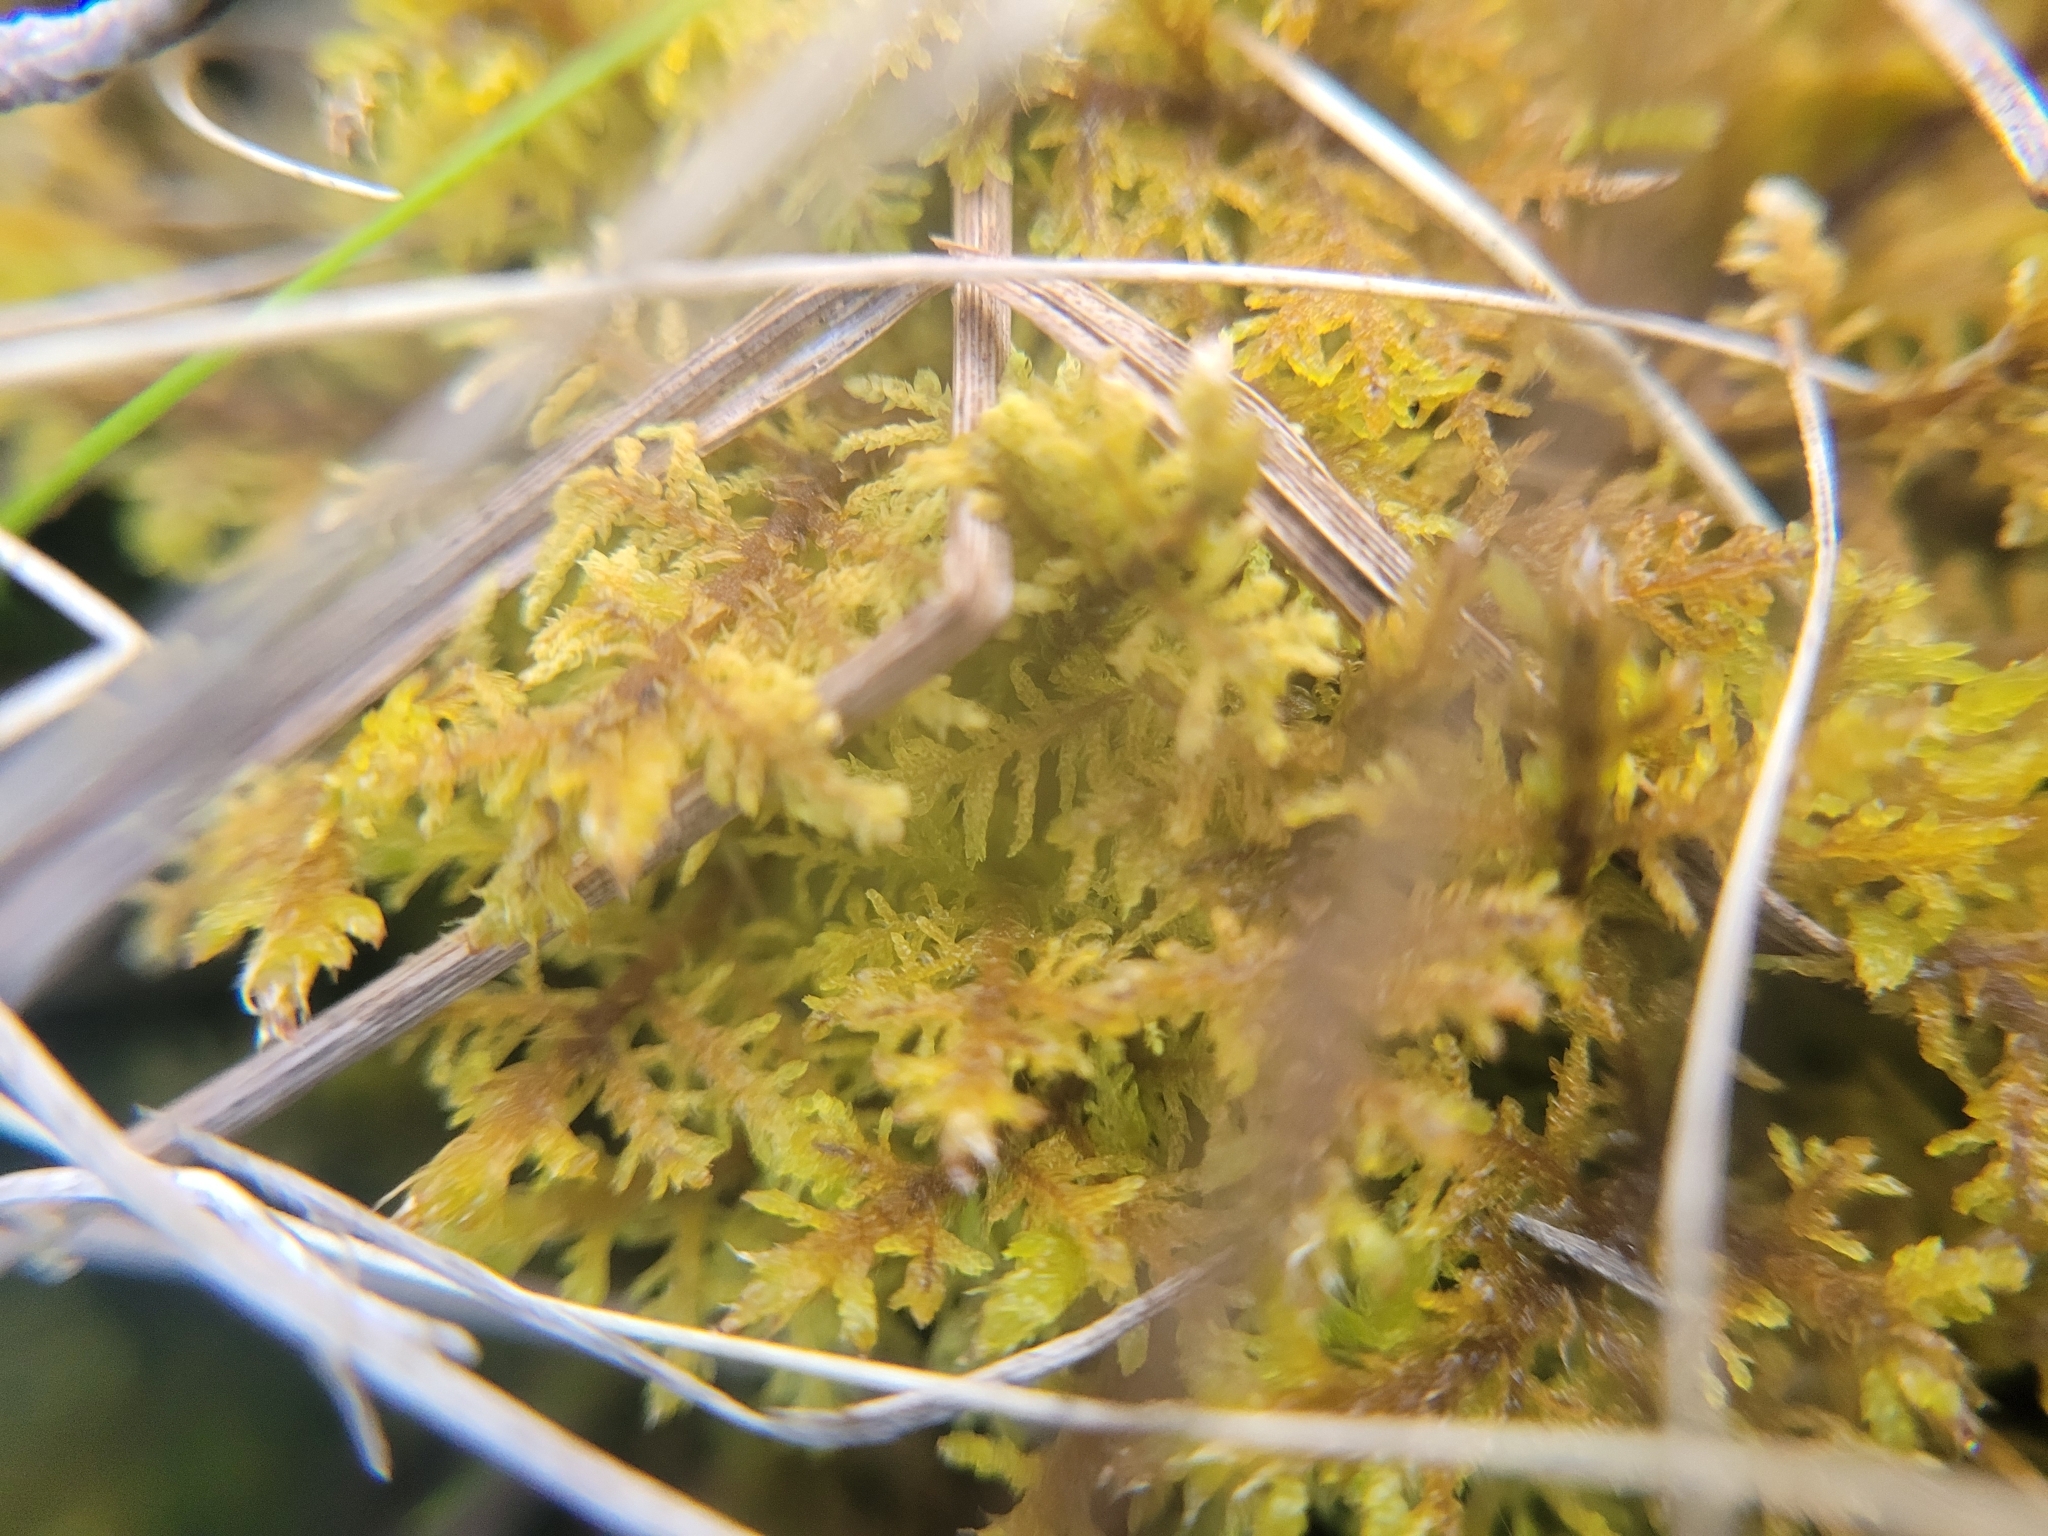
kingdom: Plantae
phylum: Bryophyta
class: Bryopsida
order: Hypnales
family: Thuidiaceae
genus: Thuidium
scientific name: Thuidium assimile
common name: Philibert's fern moss
